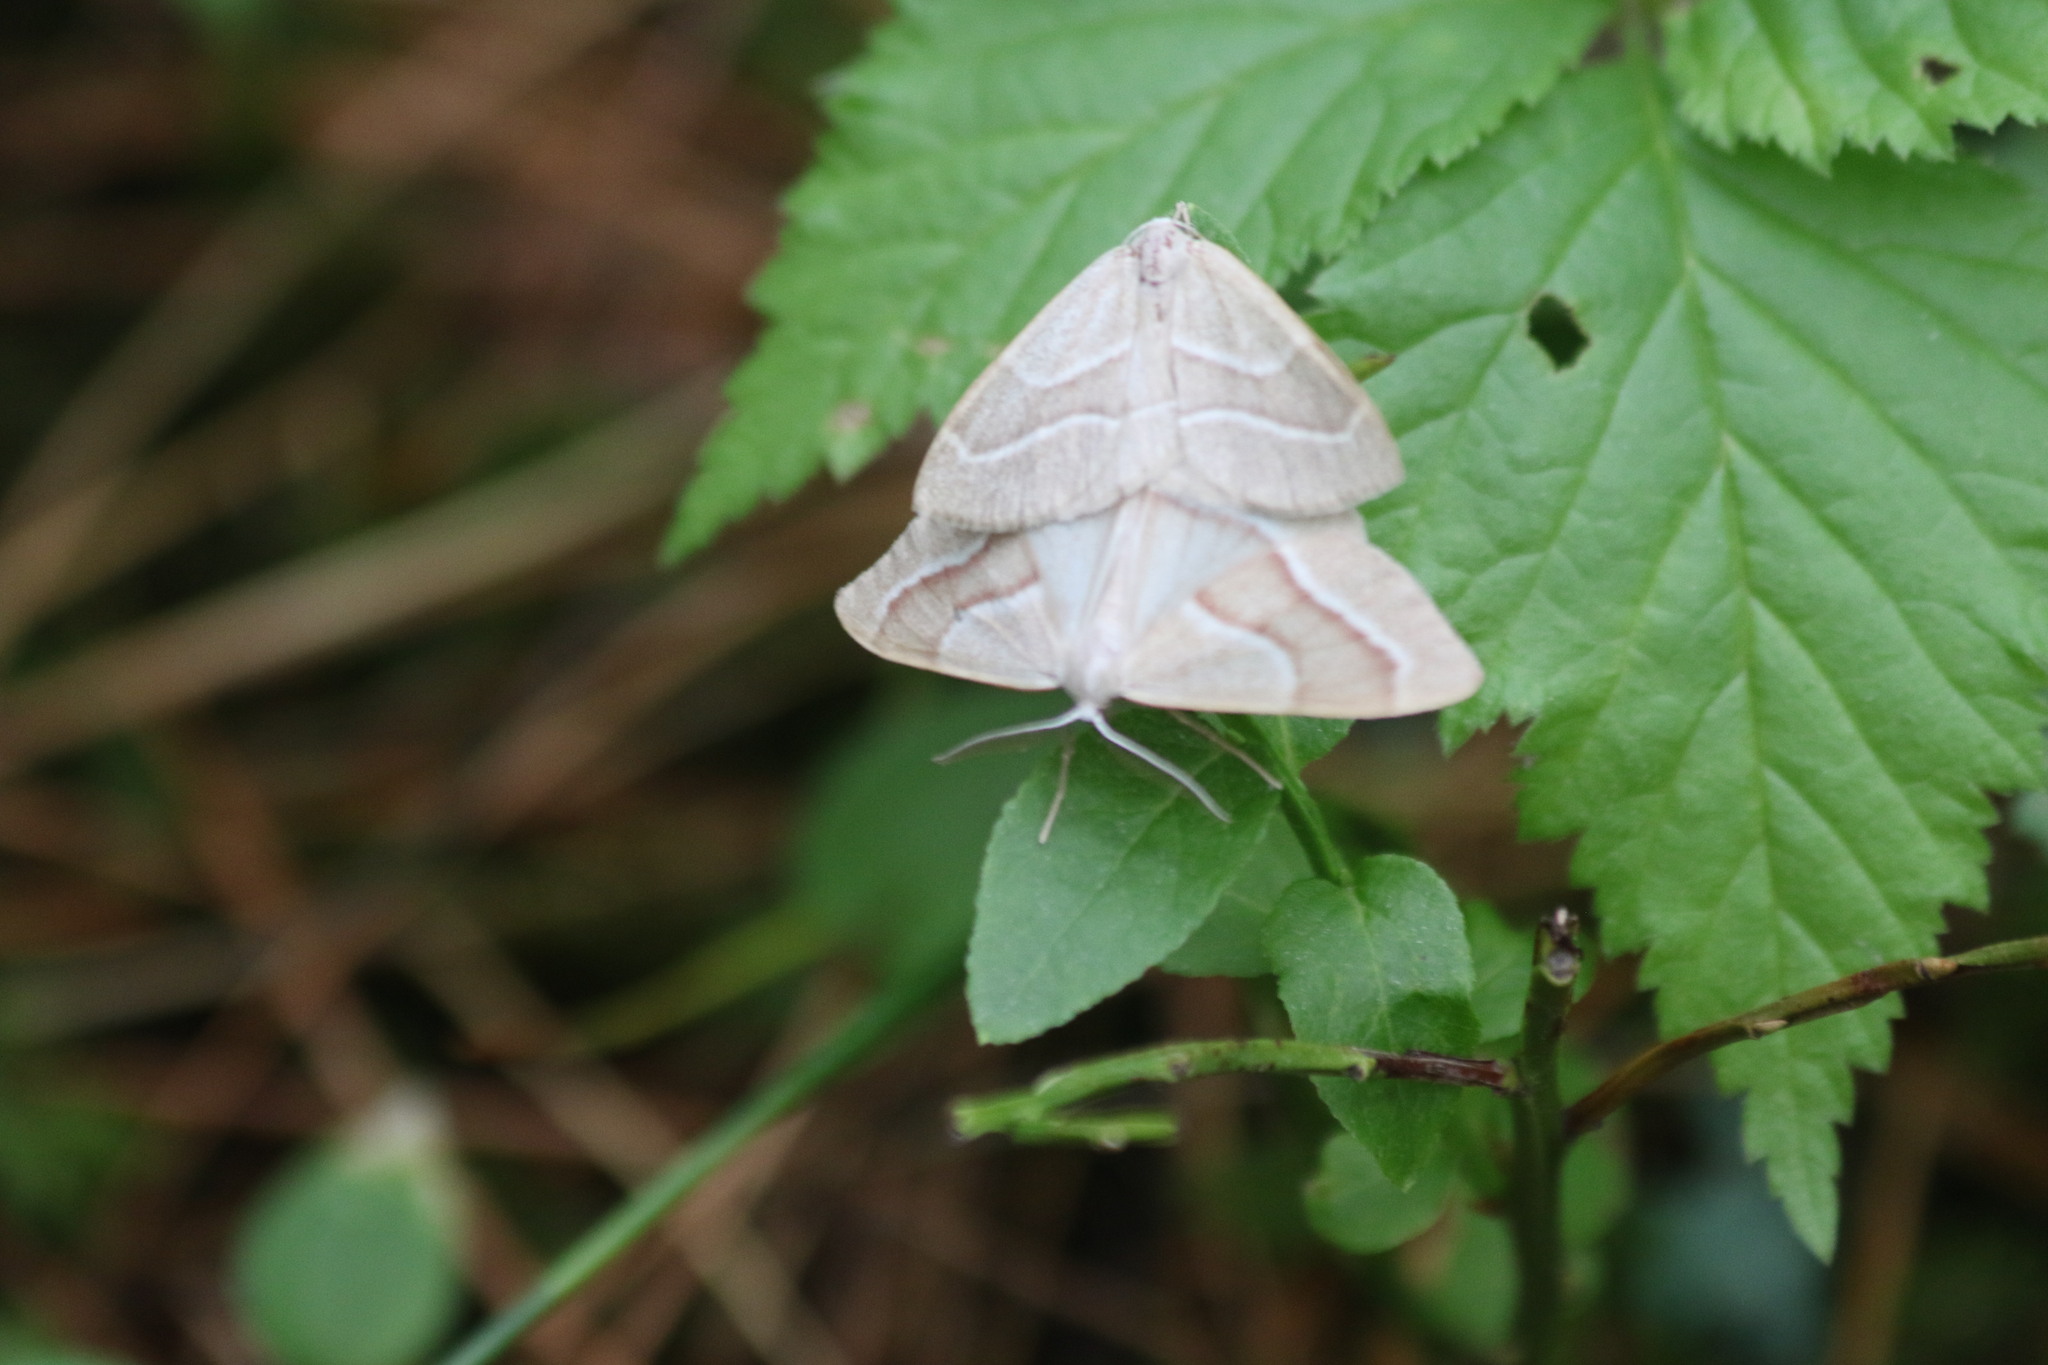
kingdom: Animalia
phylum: Arthropoda
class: Insecta
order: Lepidoptera
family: Geometridae
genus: Hylaea
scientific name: Hylaea fasciaria
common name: Barred red
